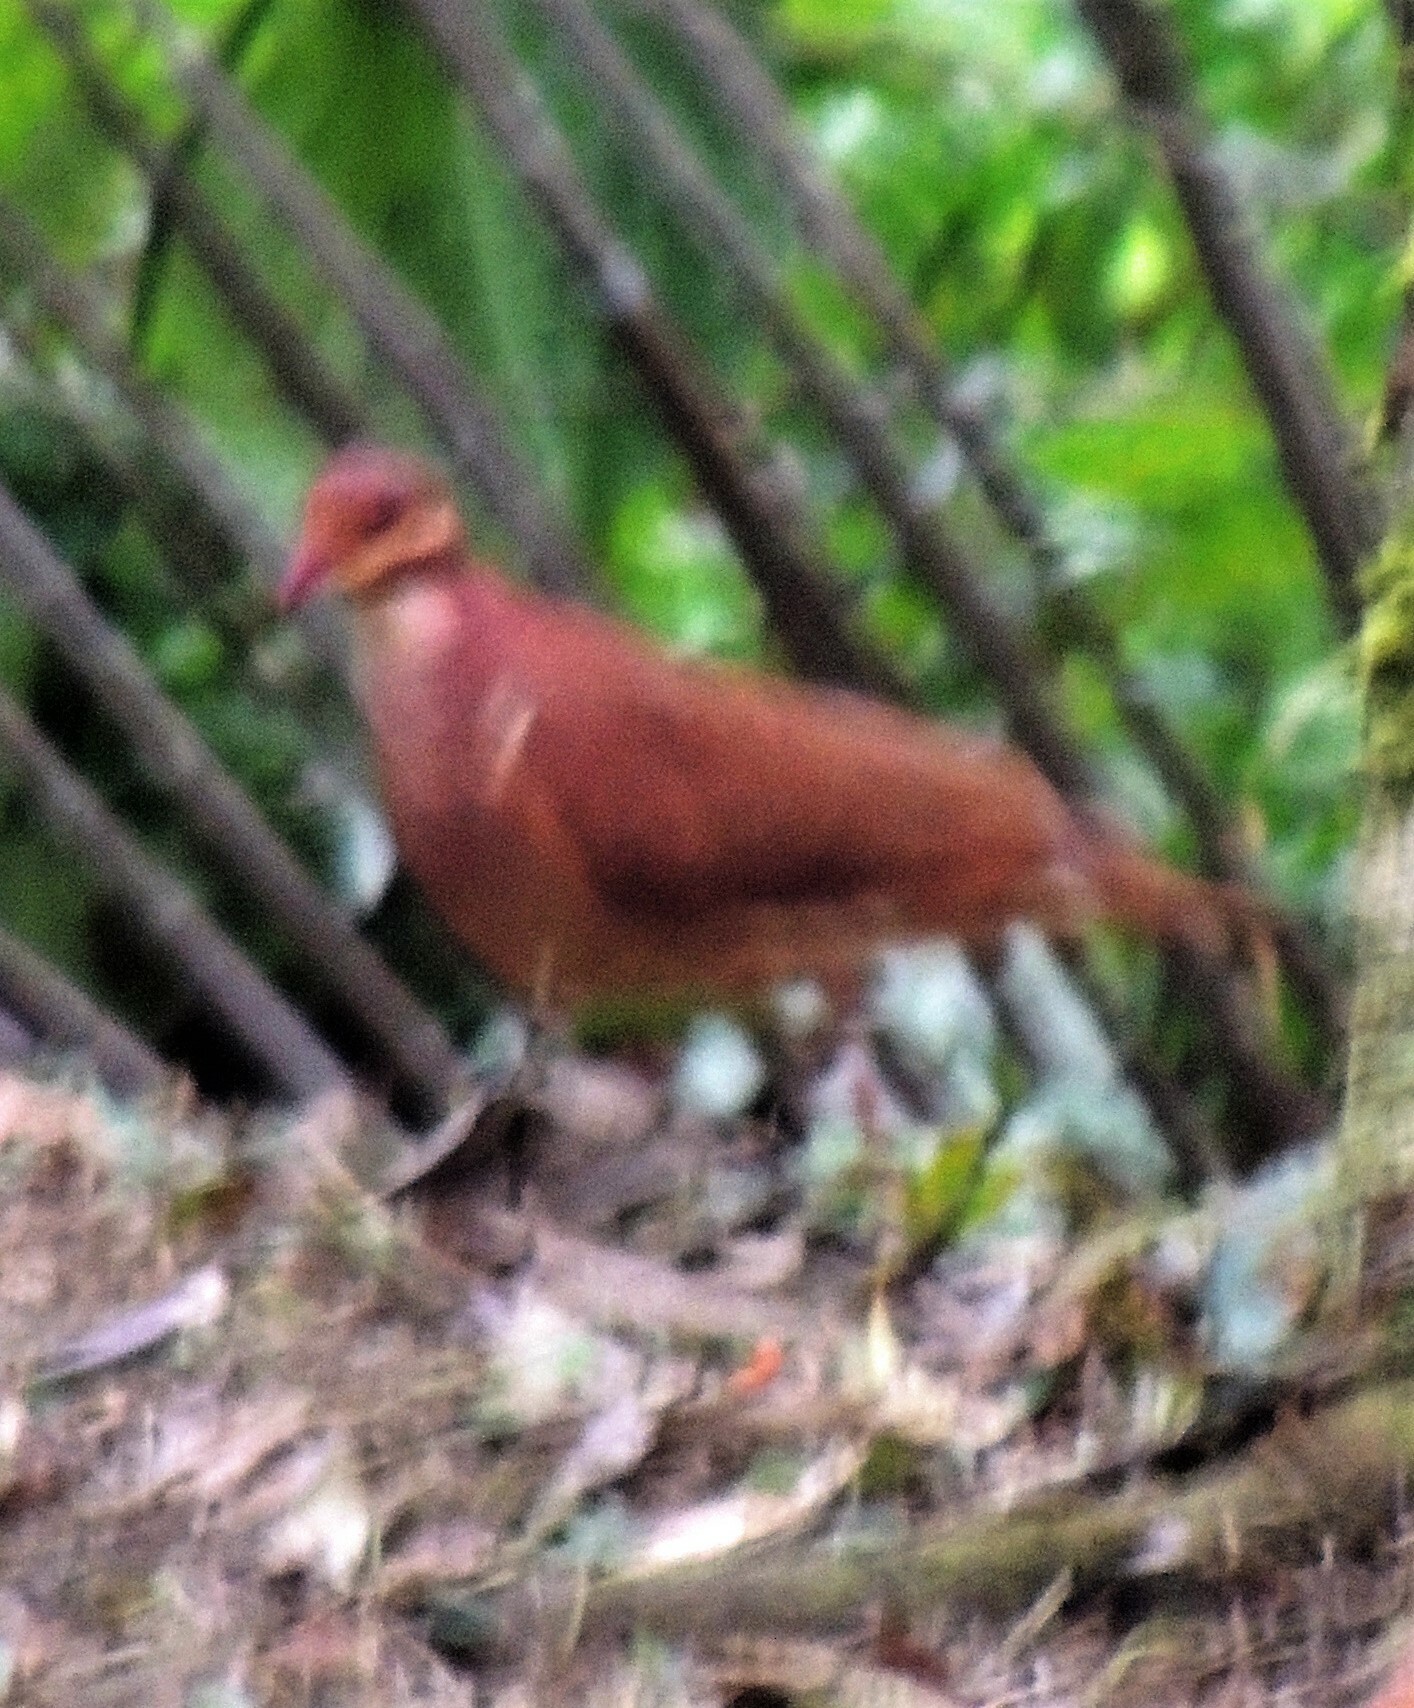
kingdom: Animalia
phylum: Chordata
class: Aves
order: Columbiformes
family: Columbidae
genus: Geotrygon
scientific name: Geotrygon montana
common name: Ruddy quail-dove
